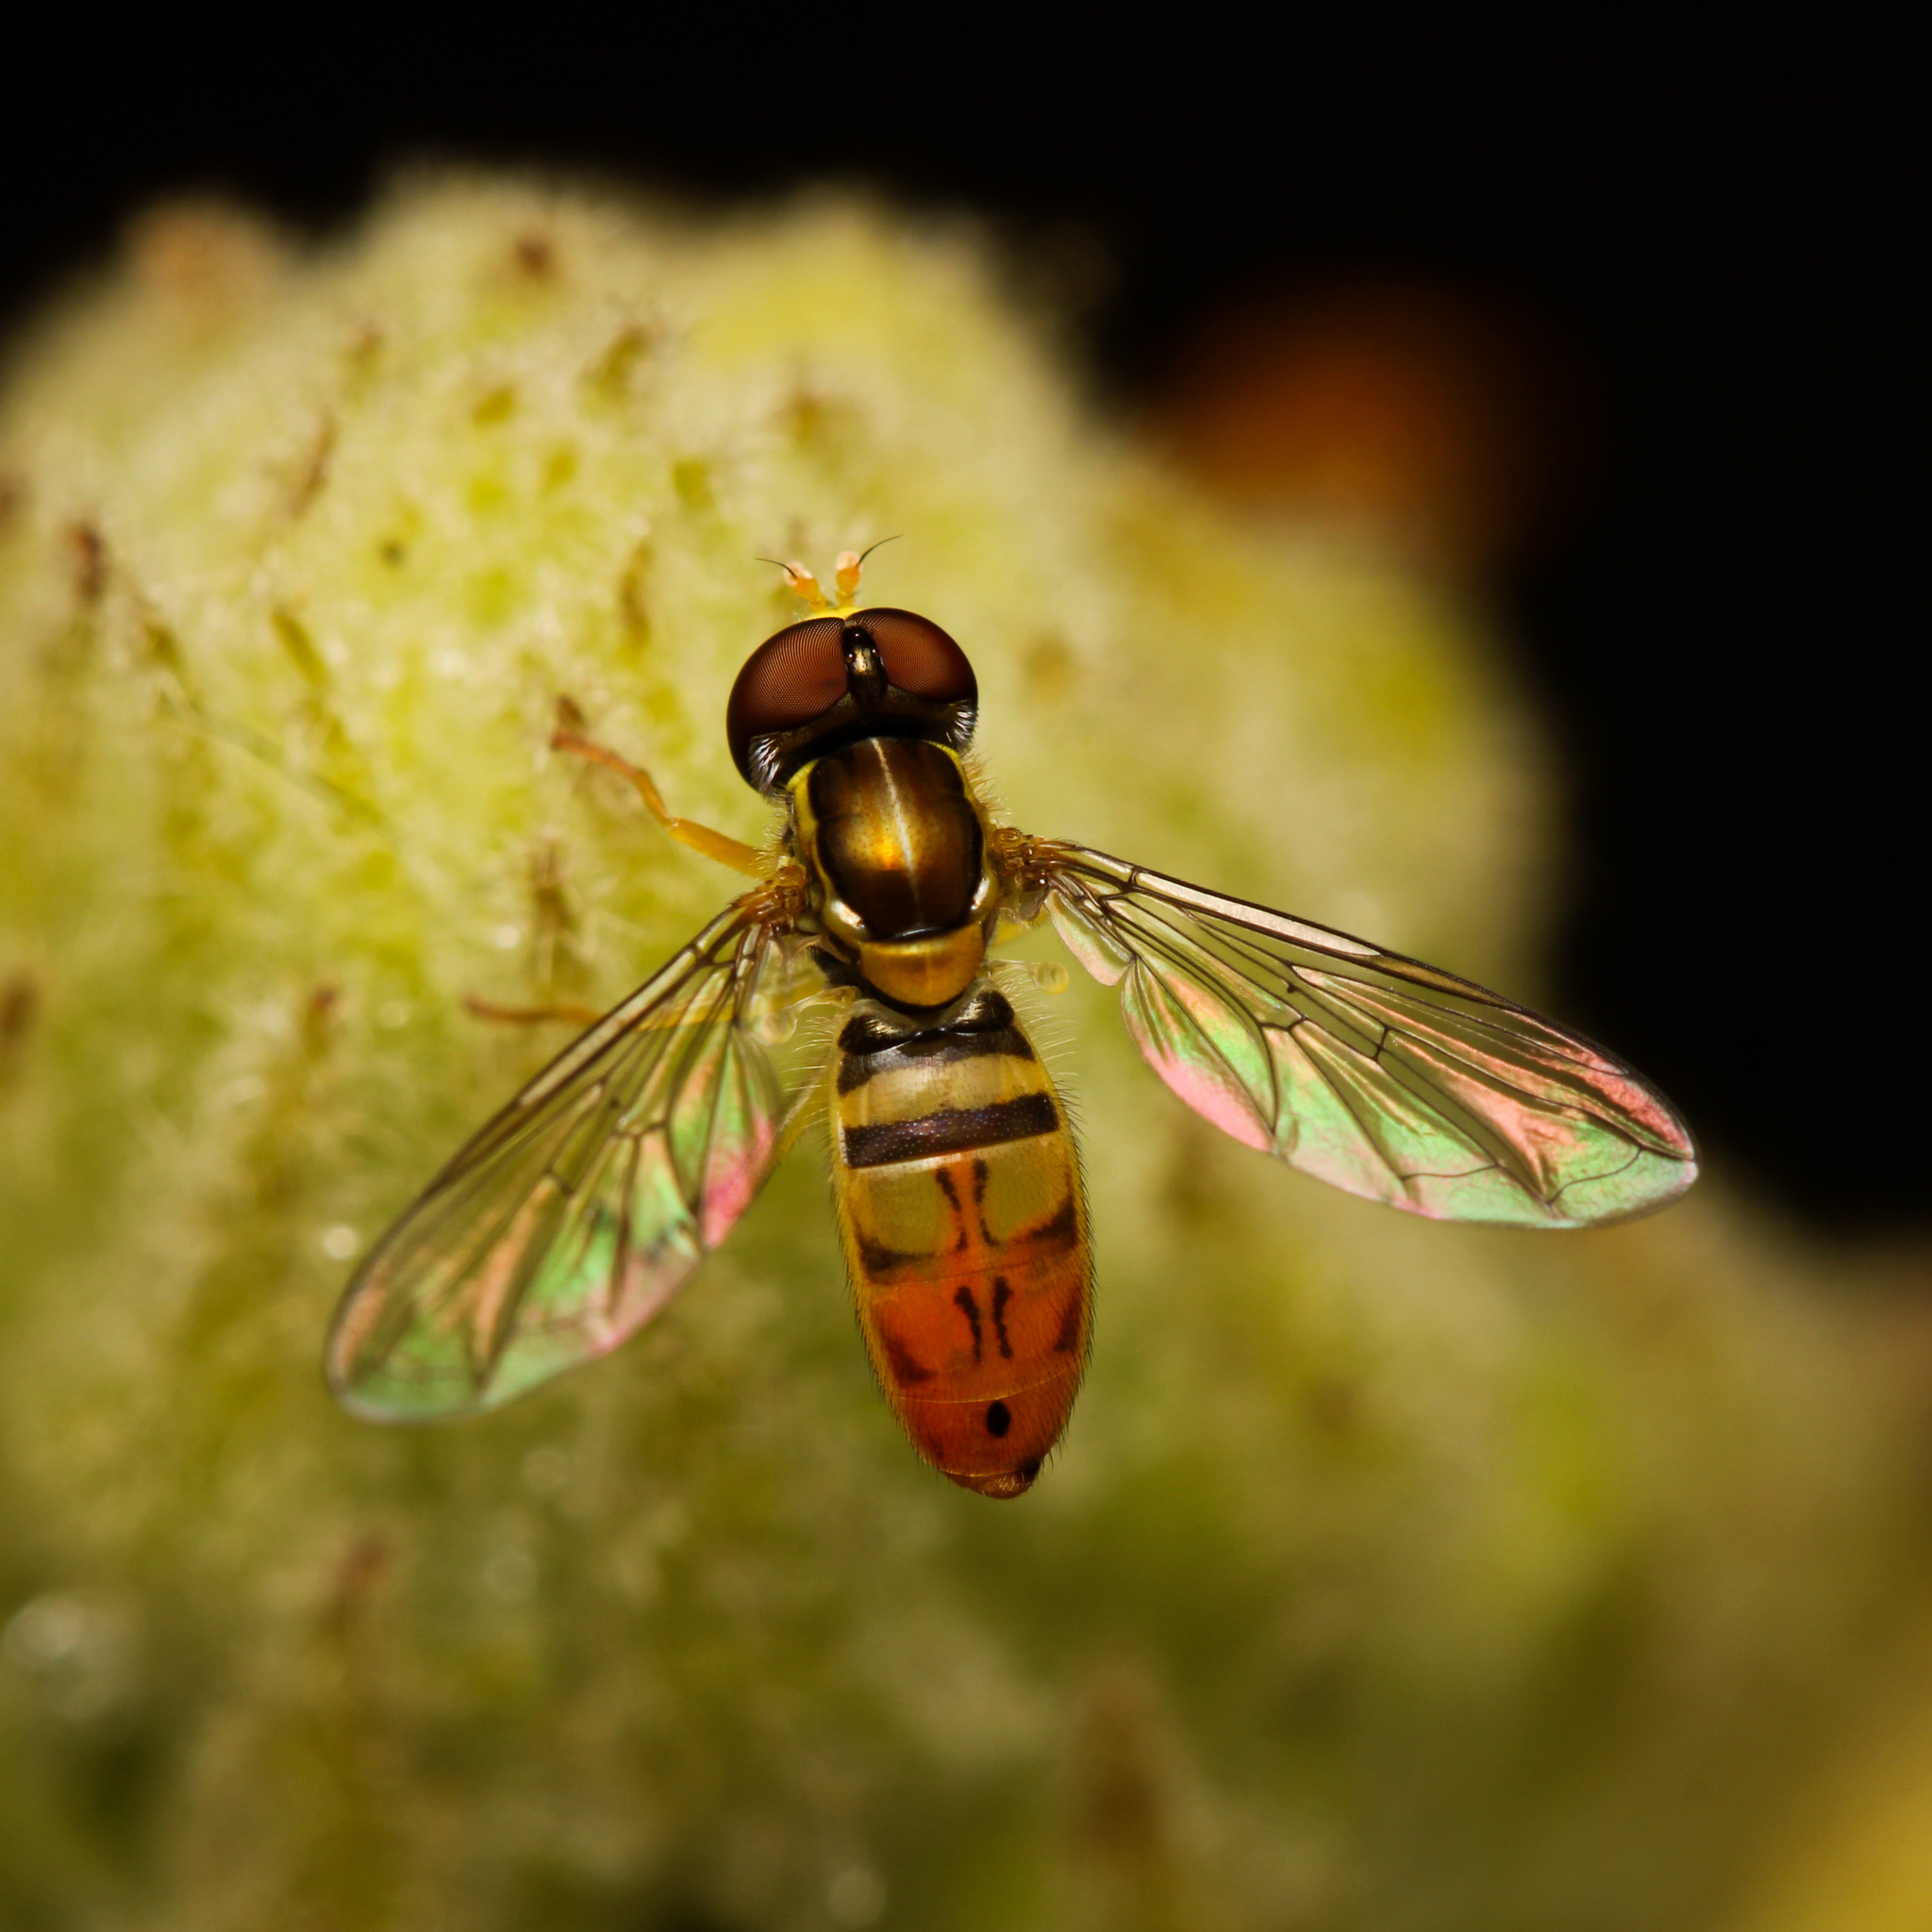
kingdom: Animalia
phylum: Arthropoda
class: Insecta
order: Diptera
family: Syrphidae
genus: Toxomerus
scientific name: Toxomerus marginatus
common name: Syrphid fly
